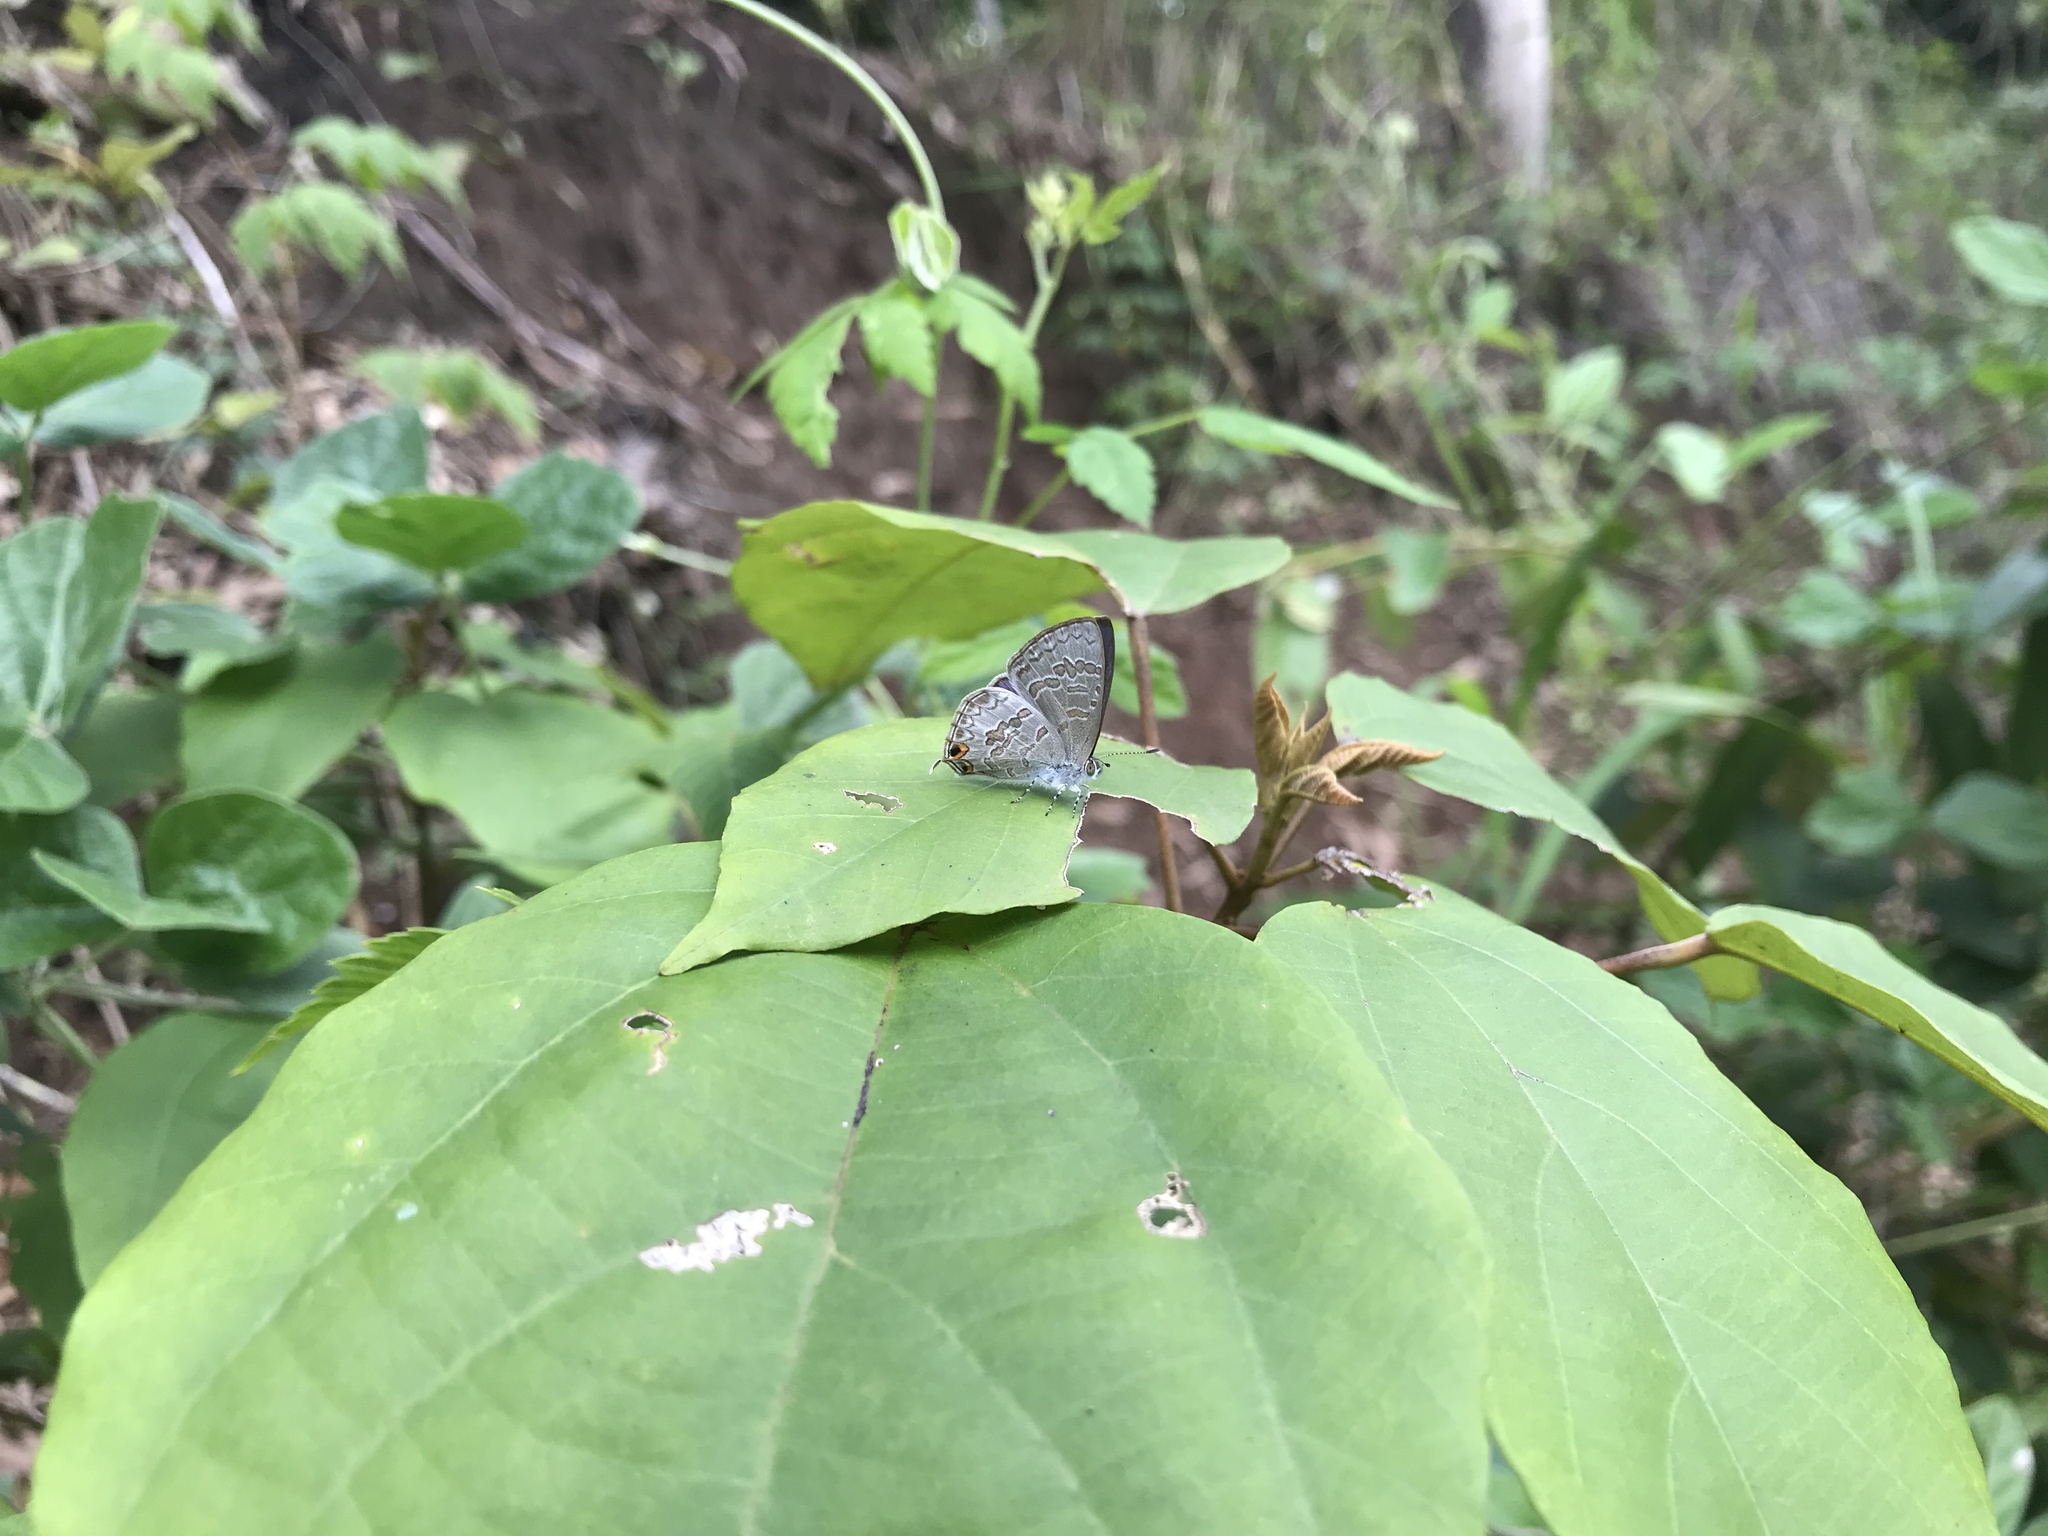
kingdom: Animalia
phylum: Arthropoda
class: Insecta
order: Lepidoptera
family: Lycaenidae
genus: Catopyrops
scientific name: Catopyrops florinda
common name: Speckled line-blue
